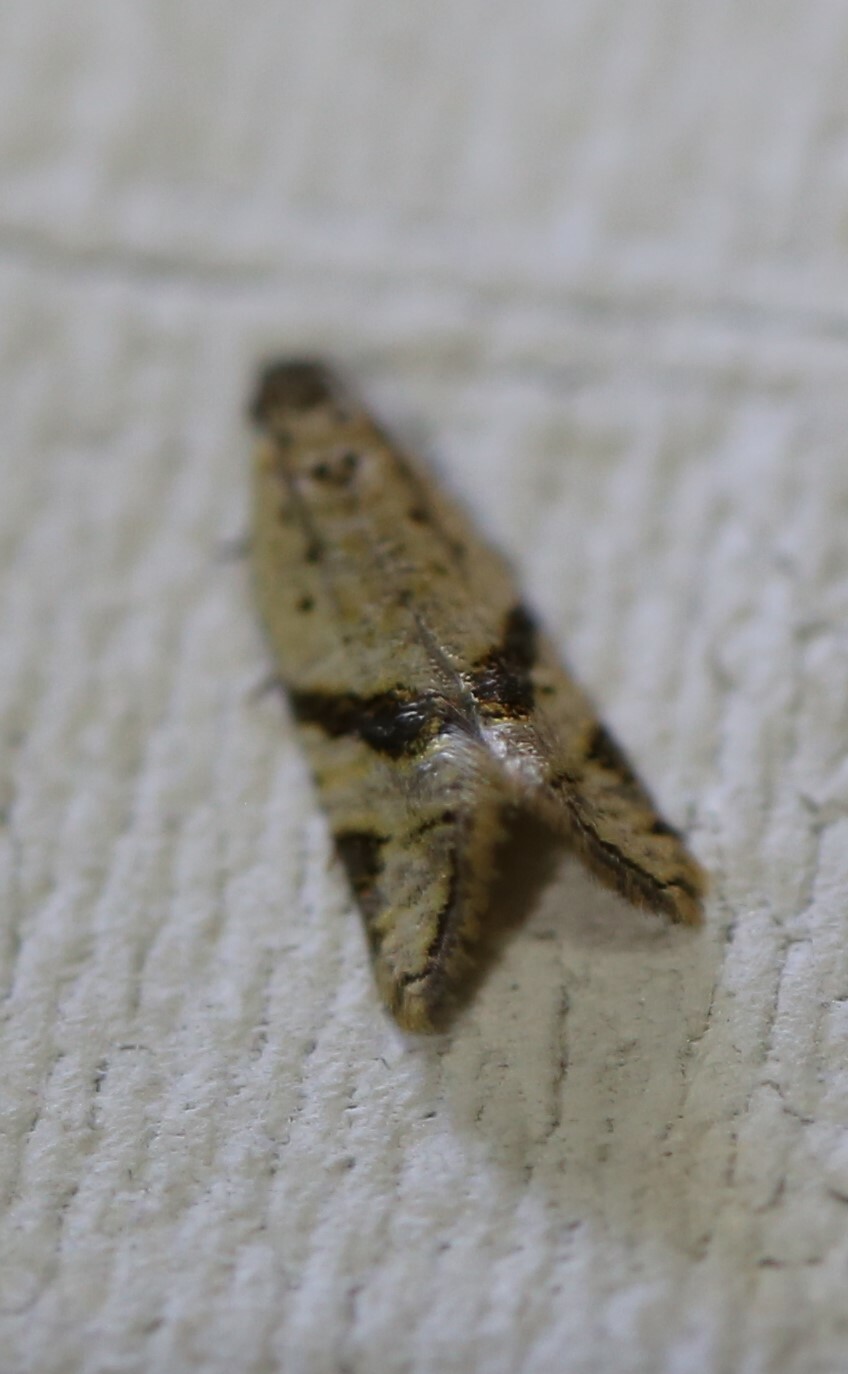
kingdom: Animalia
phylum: Arthropoda
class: Insecta
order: Lepidoptera
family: Tortricidae
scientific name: Tortricidae
